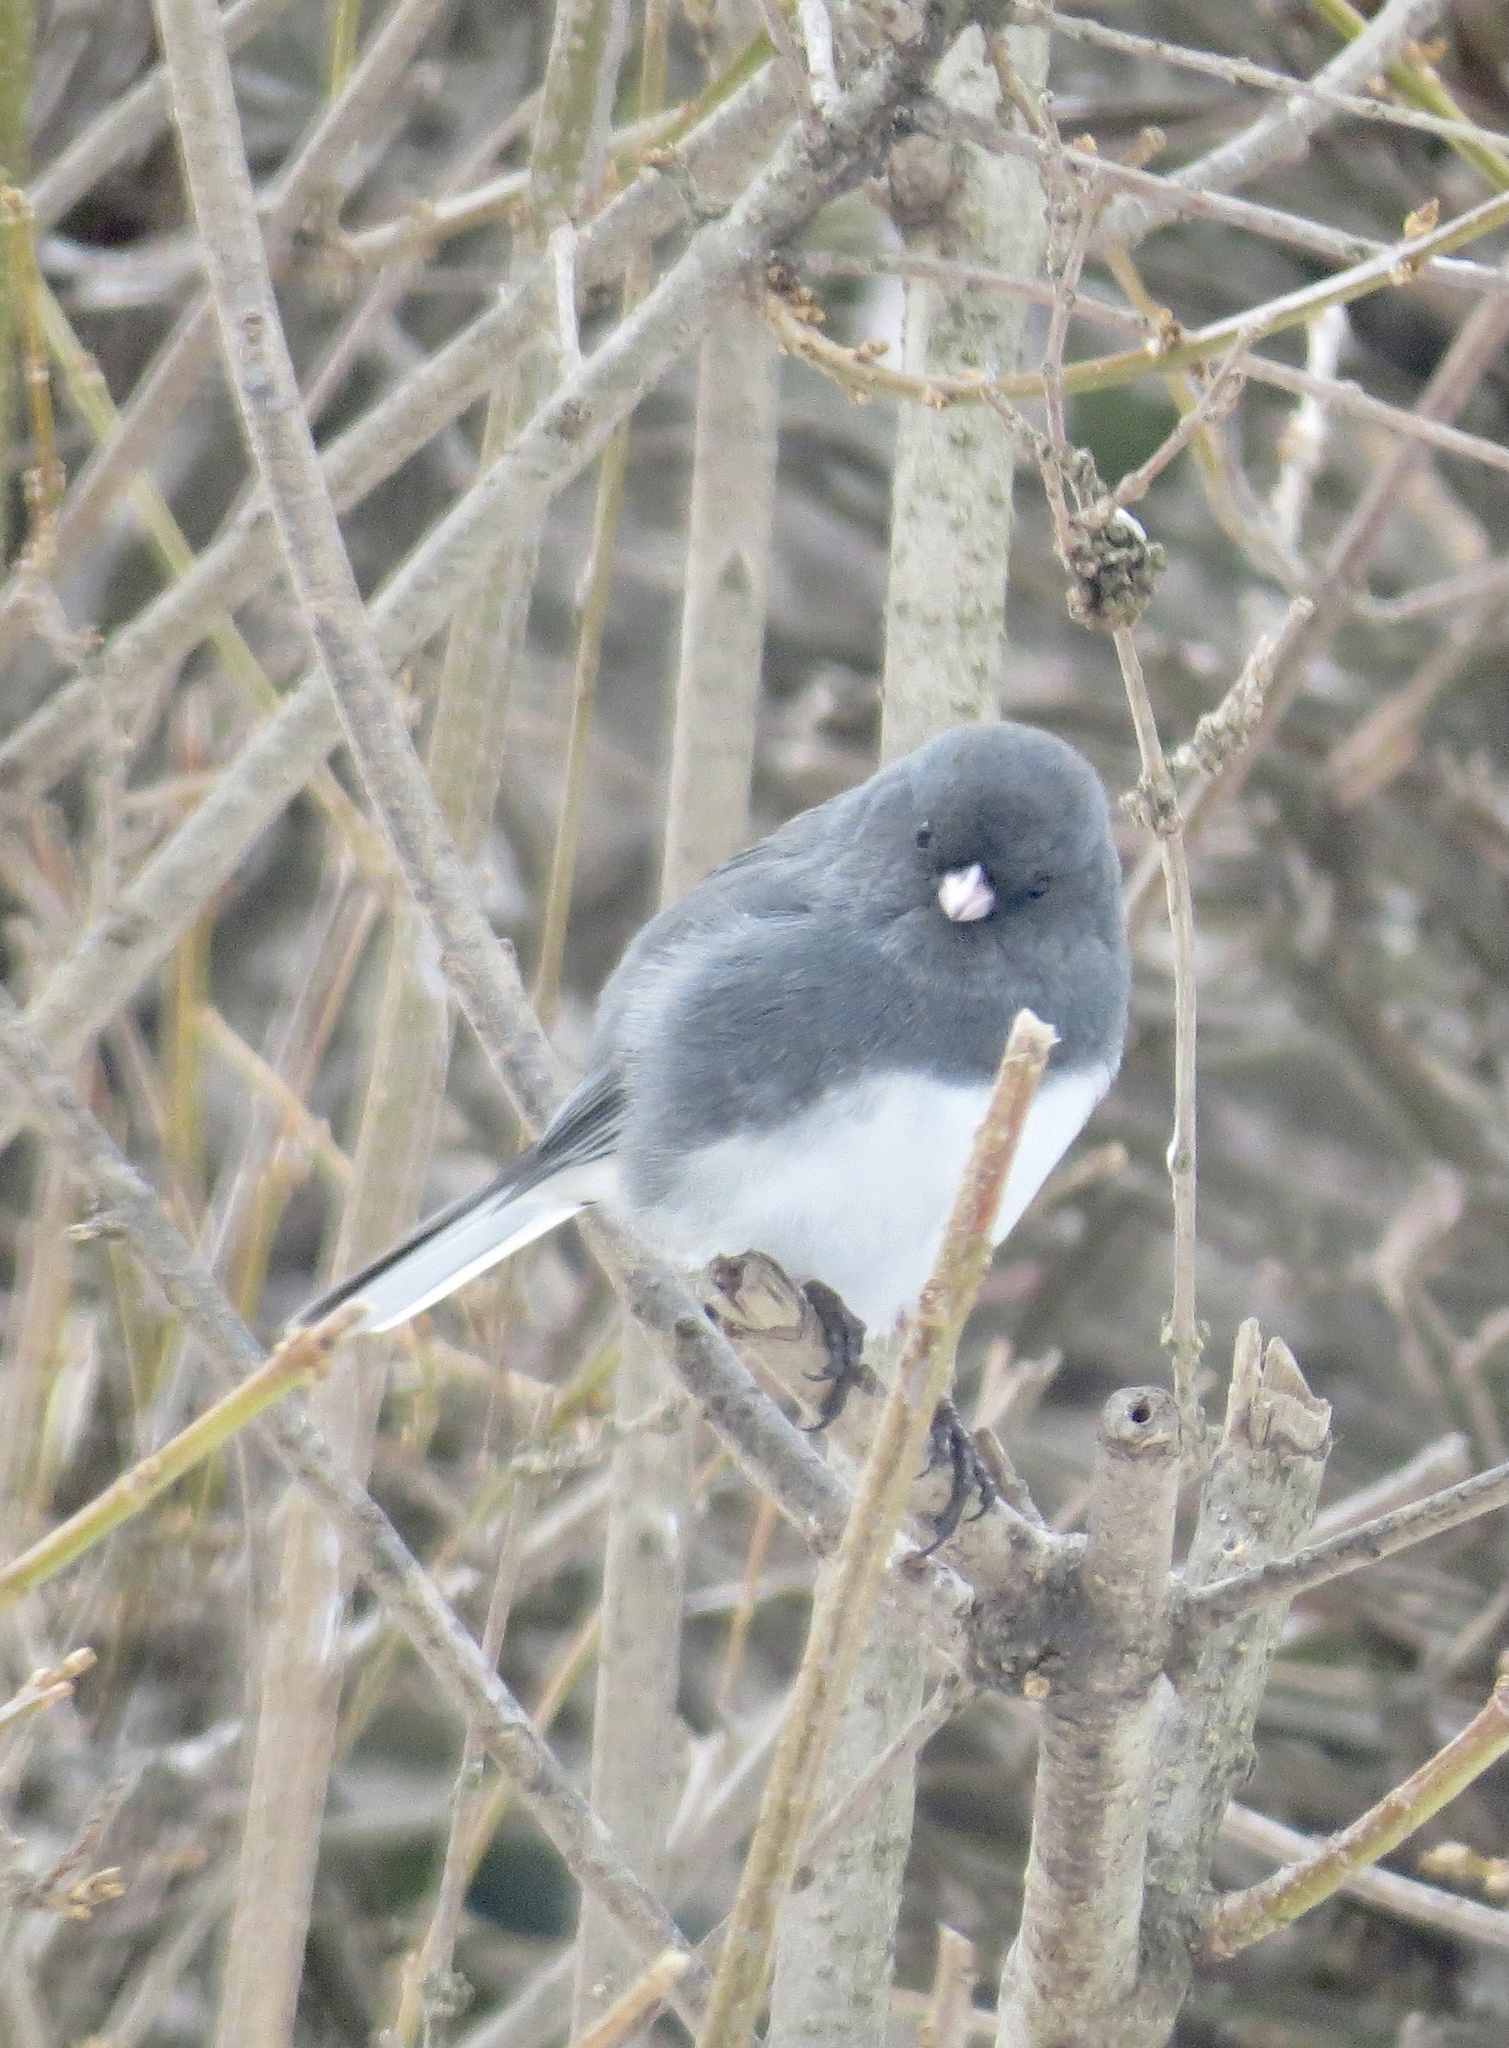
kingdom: Animalia
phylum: Chordata
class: Aves
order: Passeriformes
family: Passerellidae
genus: Junco
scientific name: Junco hyemalis
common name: Dark-eyed junco
